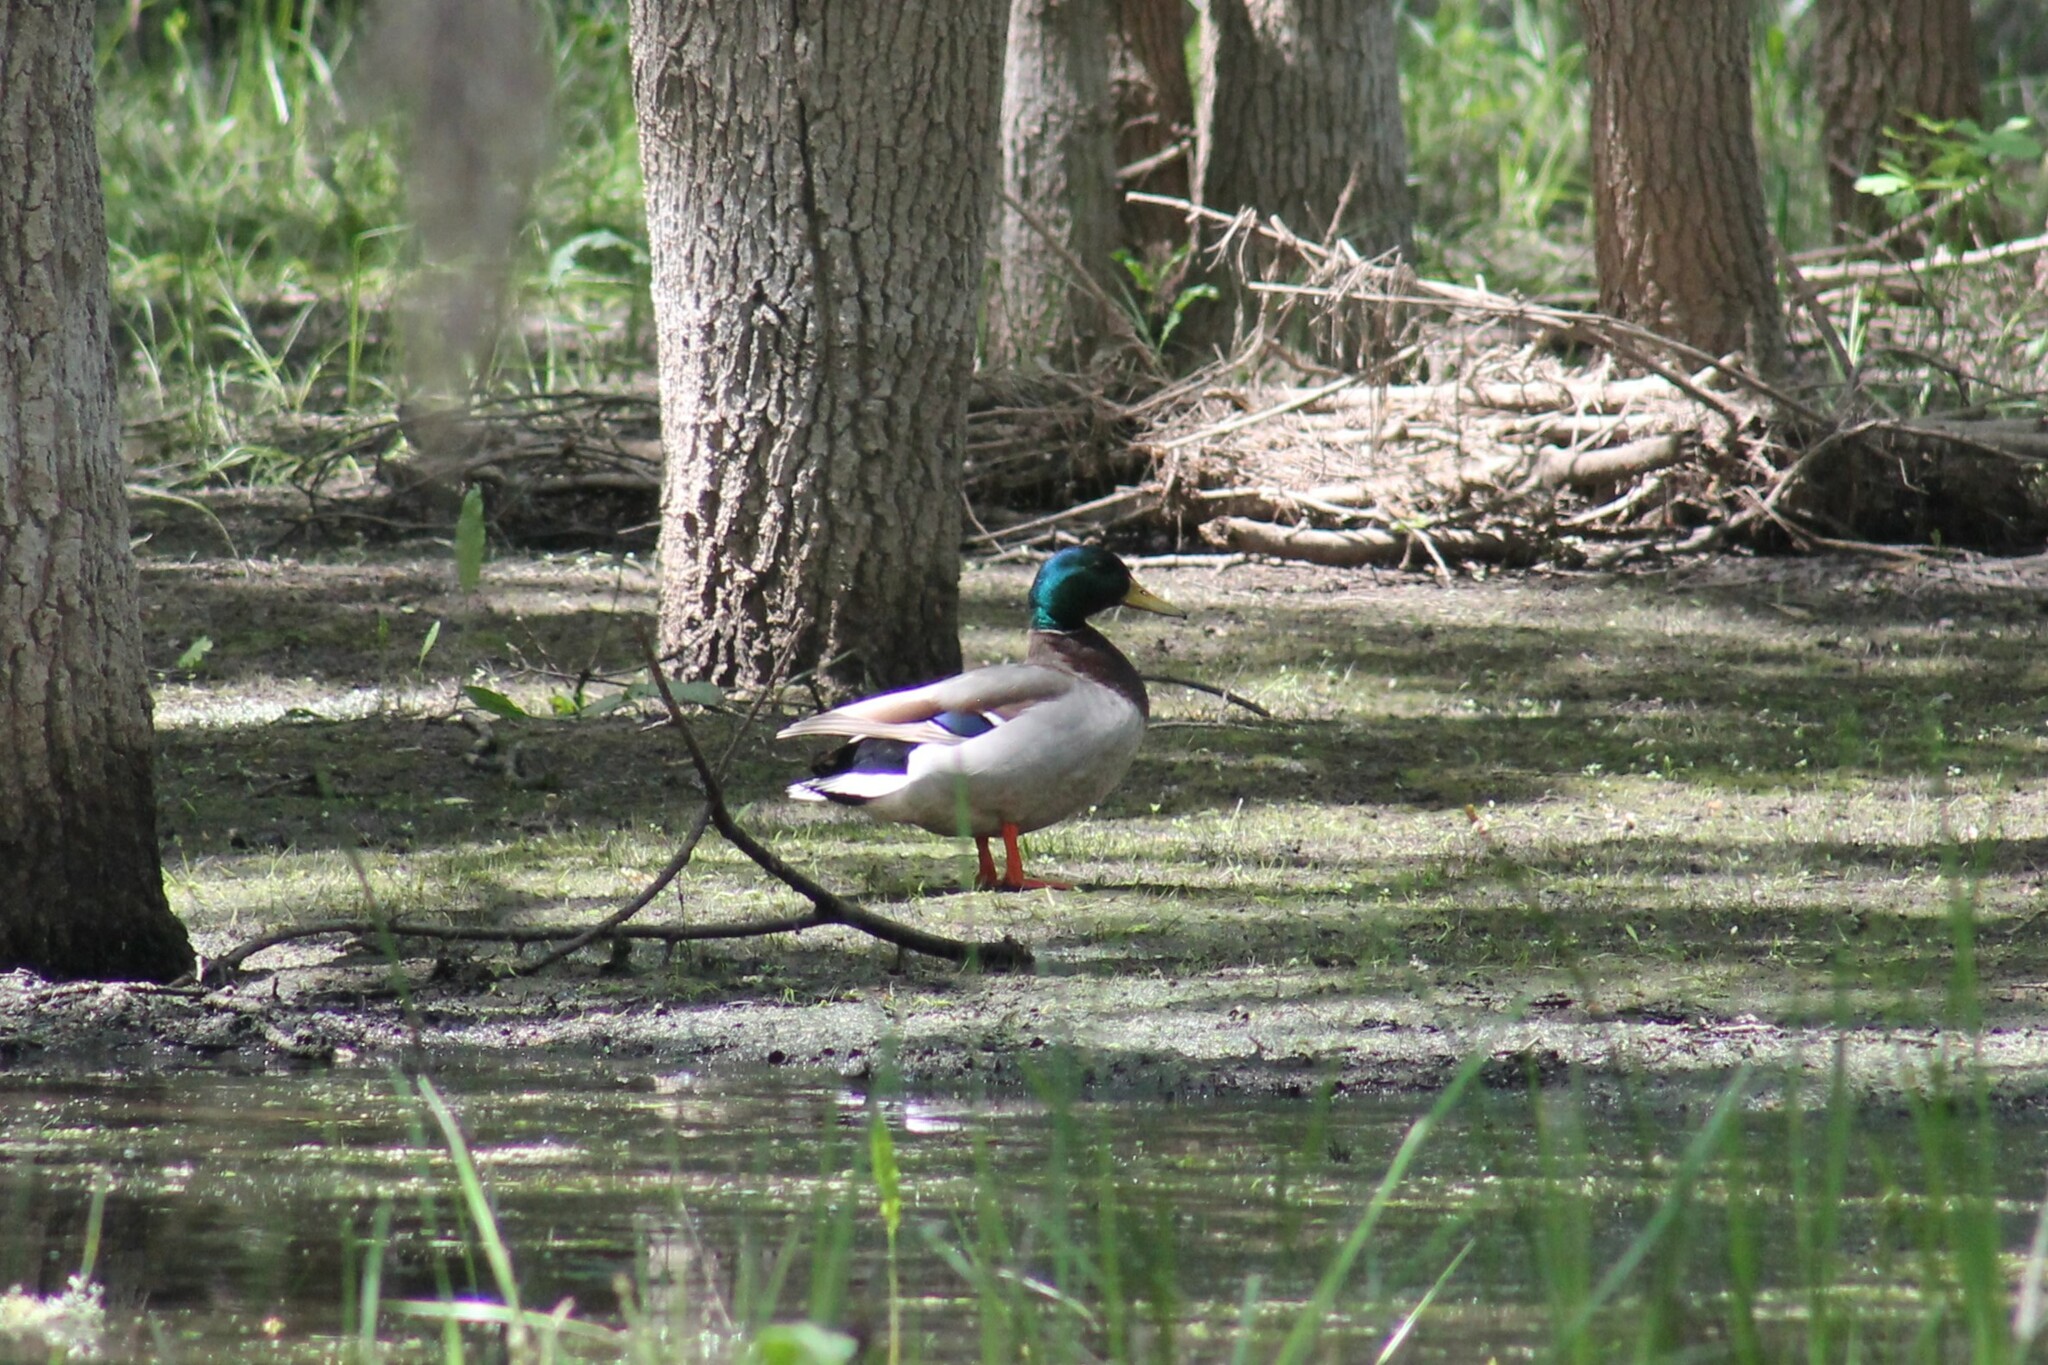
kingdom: Animalia
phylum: Chordata
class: Aves
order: Anseriformes
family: Anatidae
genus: Anas
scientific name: Anas platyrhynchos
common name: Mallard
